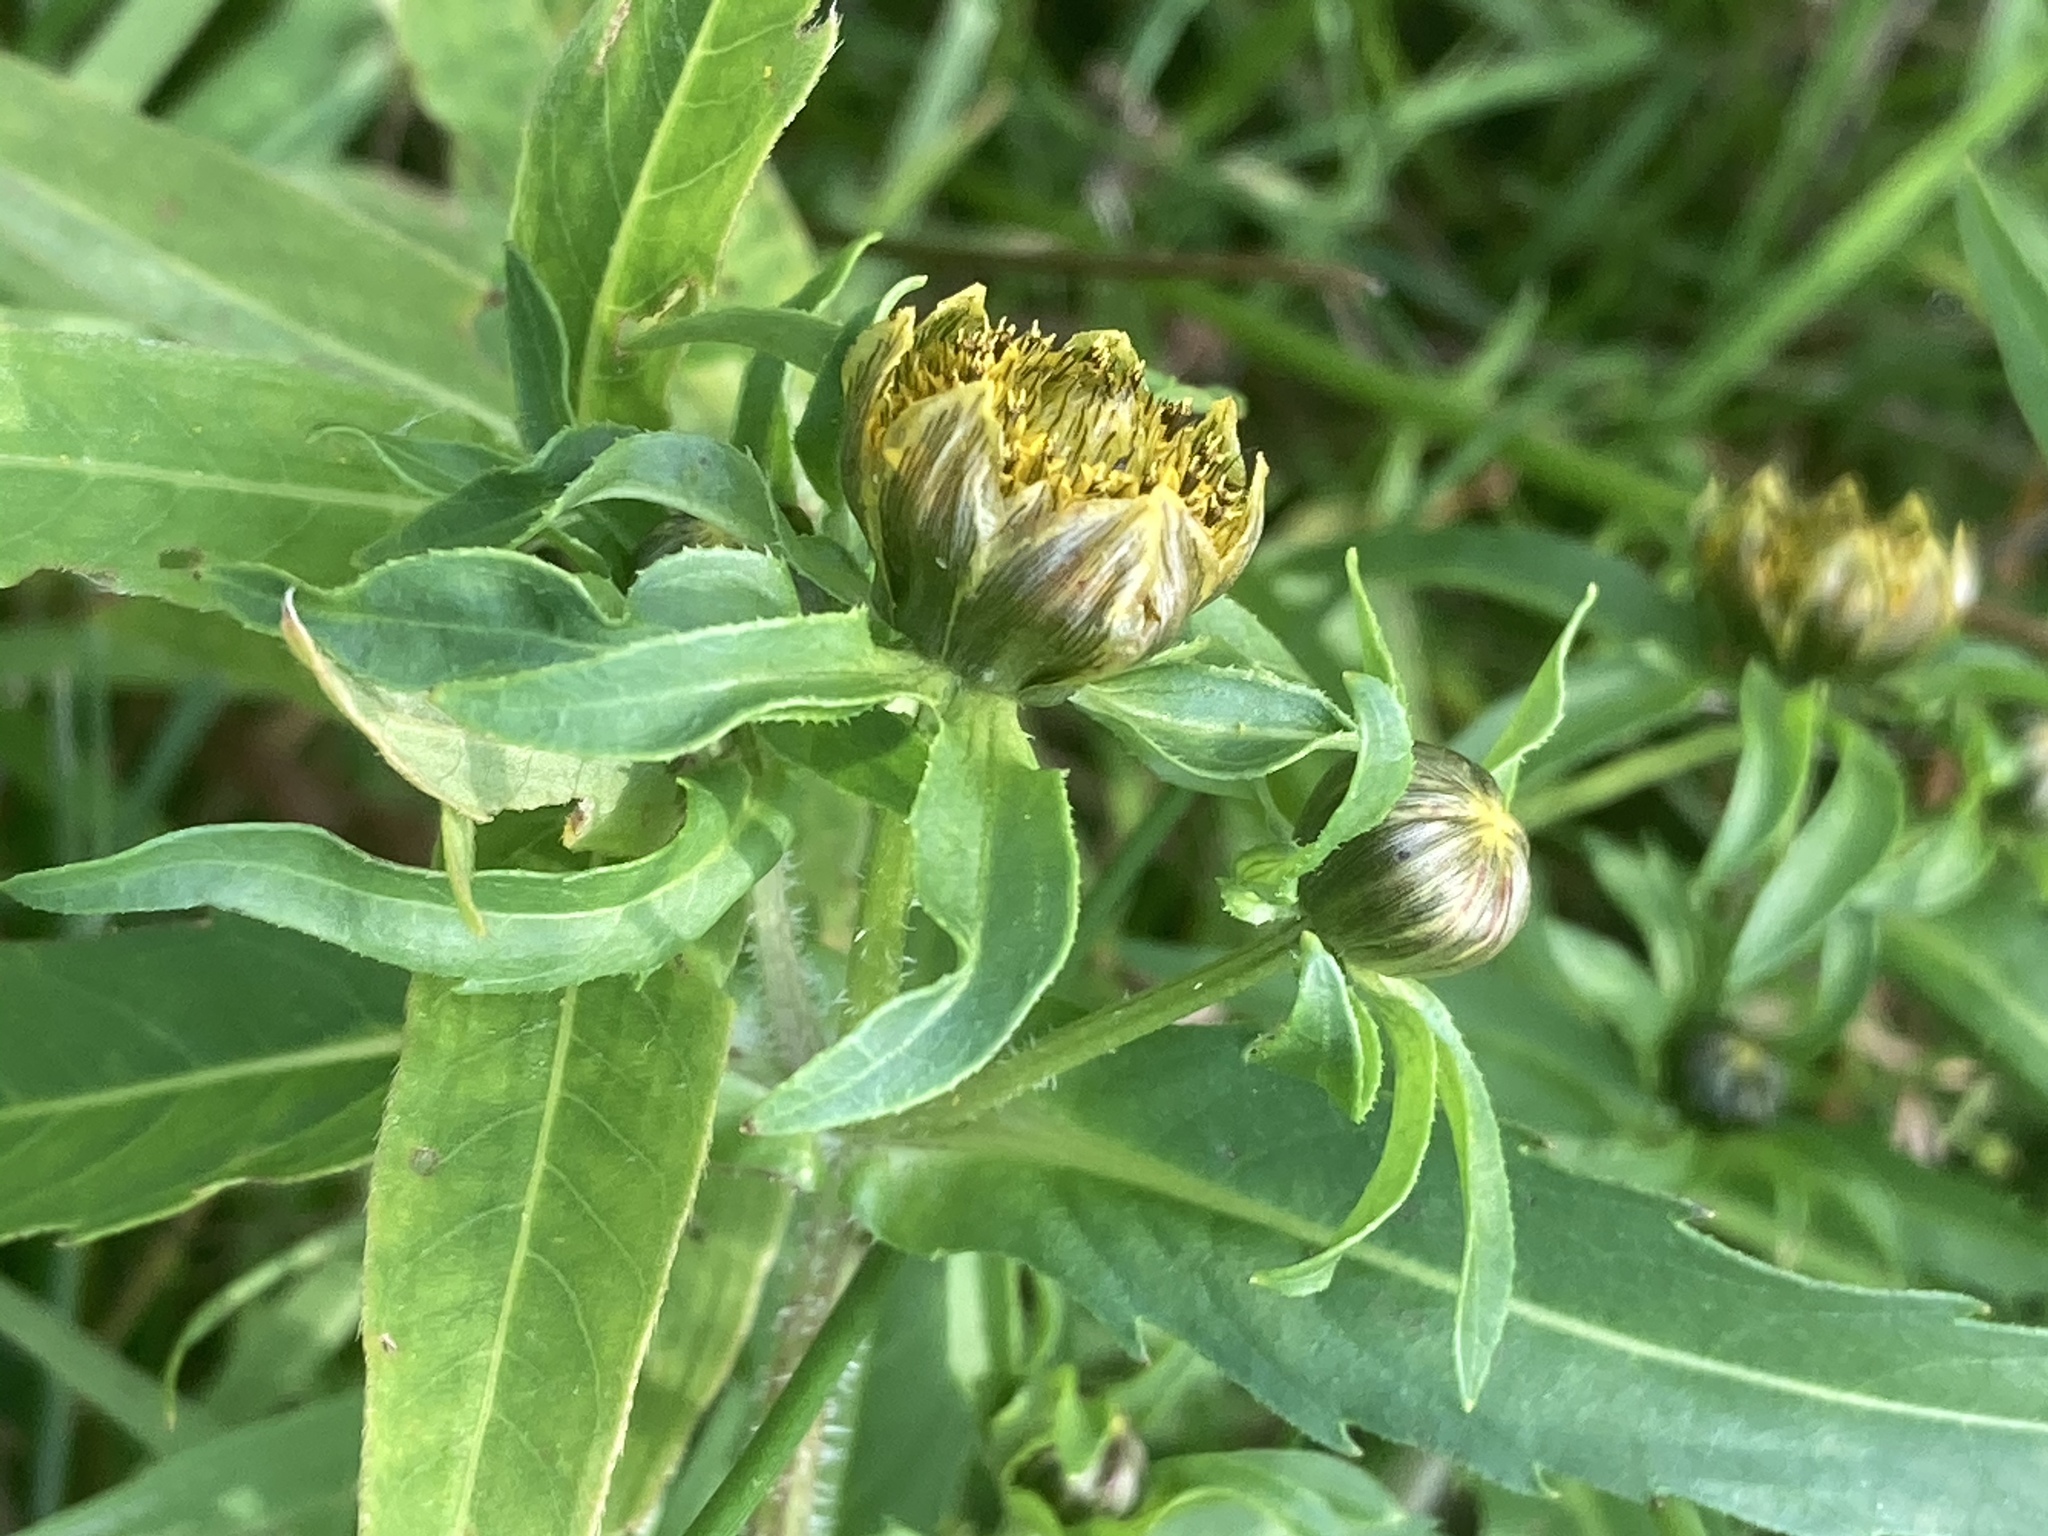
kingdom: Plantae
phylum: Tracheophyta
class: Magnoliopsida
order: Asterales
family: Asteraceae
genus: Bidens
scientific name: Bidens cernua
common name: Nodding bur-marigold
